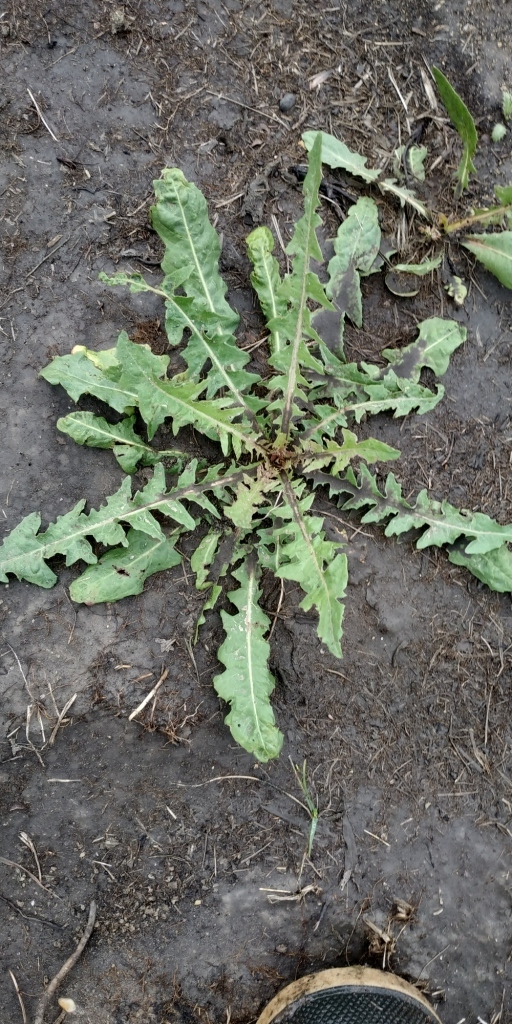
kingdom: Plantae
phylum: Tracheophyta
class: Magnoliopsida
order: Asterales
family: Asteraceae
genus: Taraxacum
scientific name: Taraxacum officinale
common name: Common dandelion
